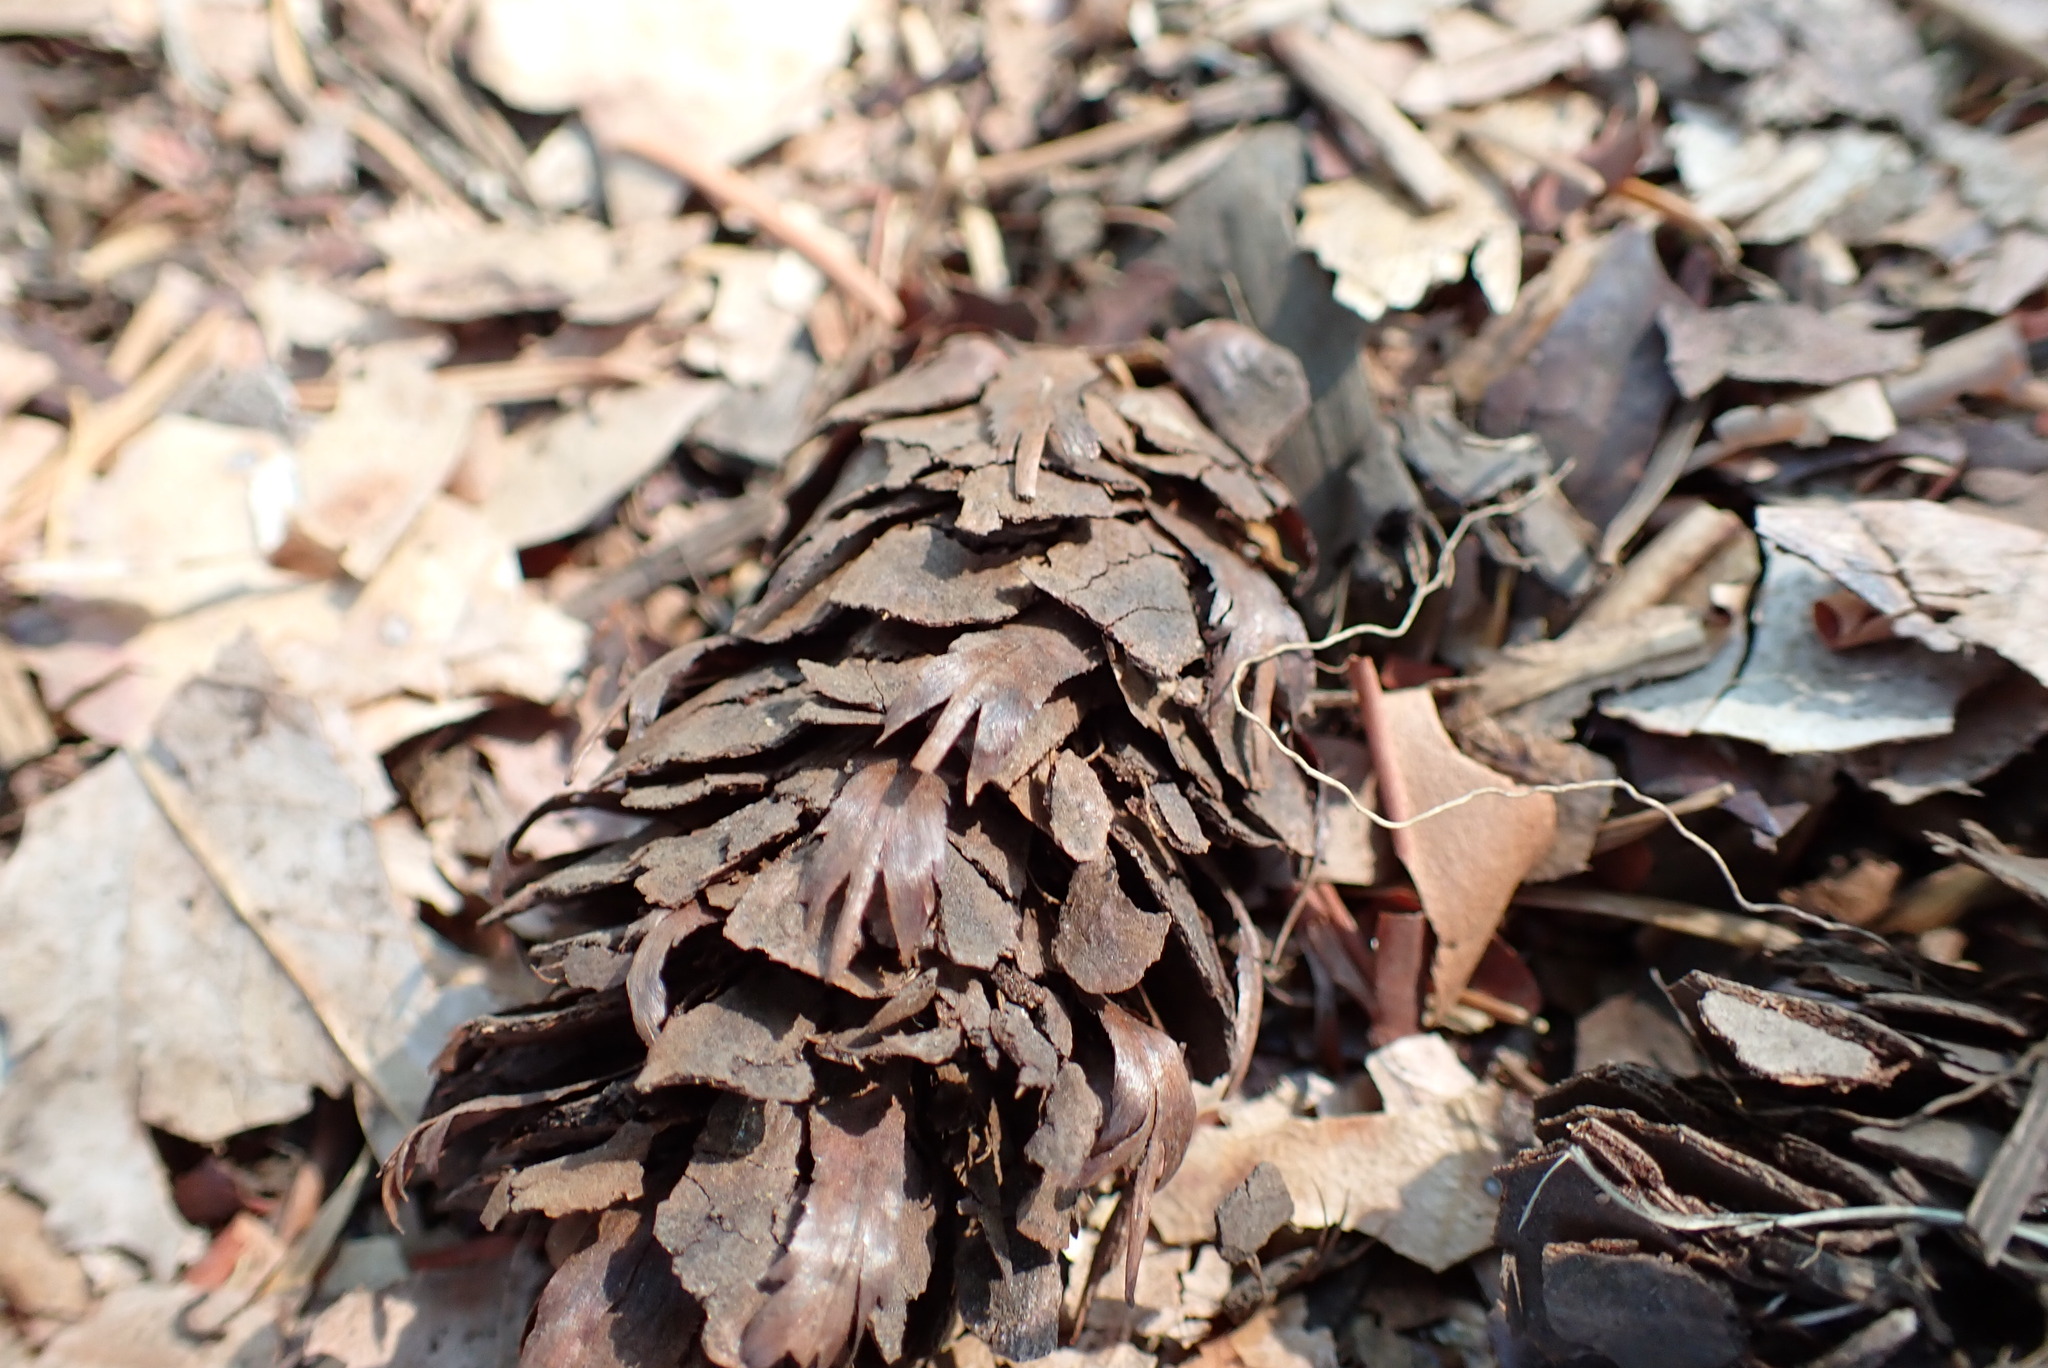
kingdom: Plantae
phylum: Tracheophyta
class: Pinopsida
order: Pinales
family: Pinaceae
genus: Pseudotsuga
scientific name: Pseudotsuga menziesii
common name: Douglas fir
